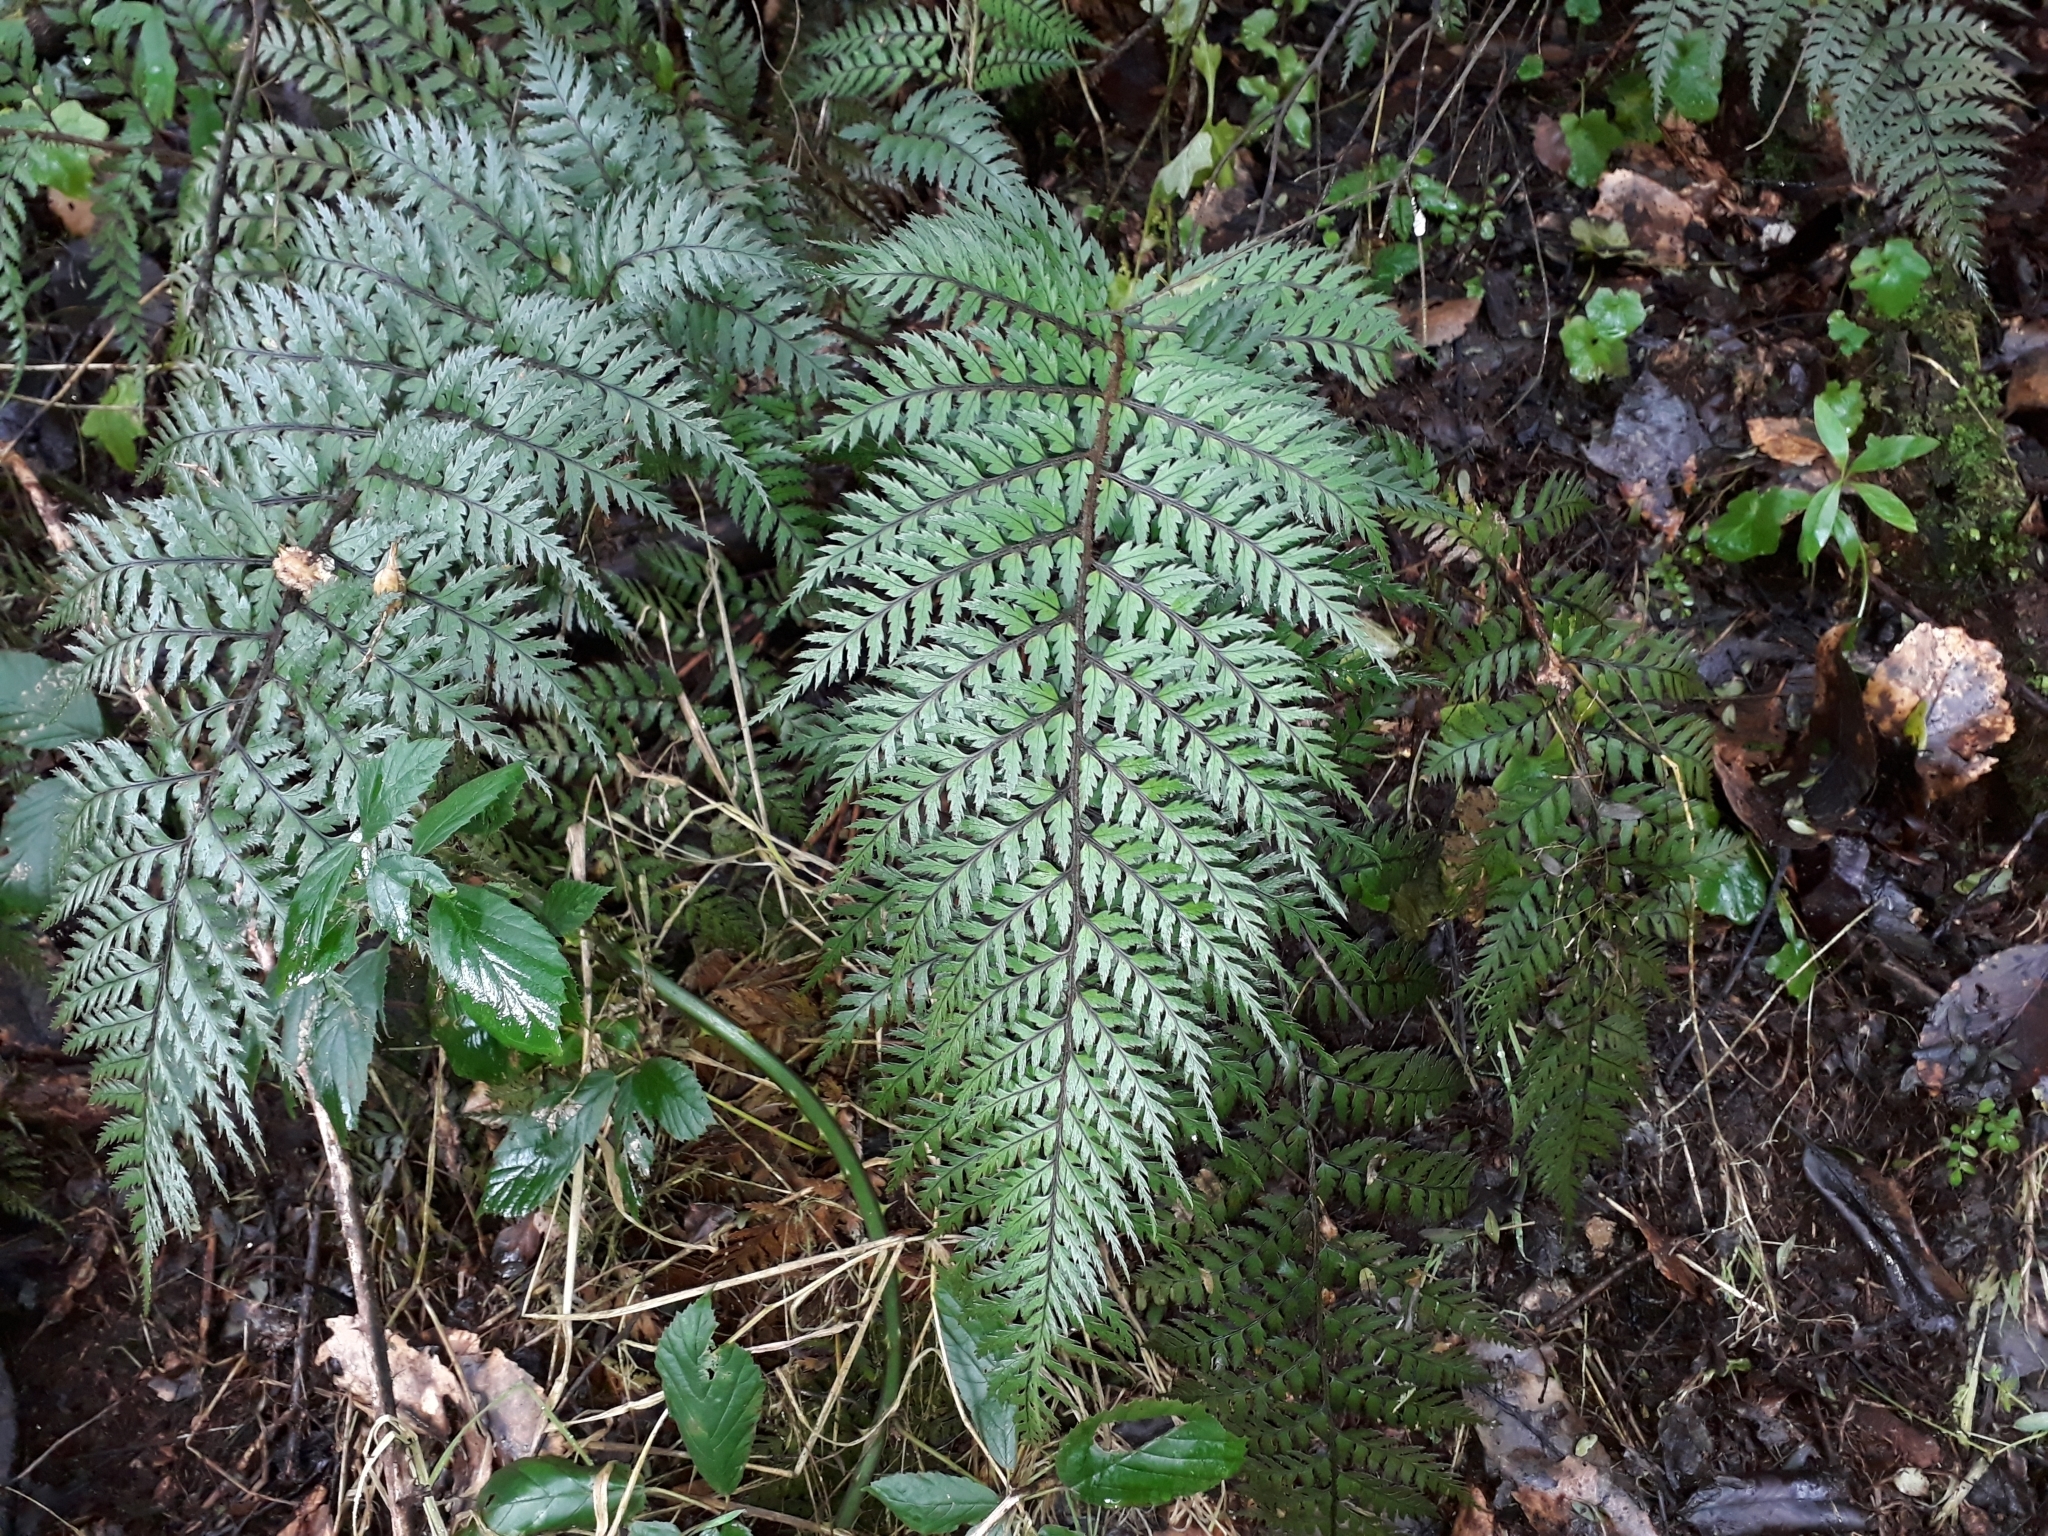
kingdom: Plantae
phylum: Tracheophyta
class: Polypodiopsida
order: Polypodiales
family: Dryopteridaceae
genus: Polystichum
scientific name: Polystichum neozelandicum
